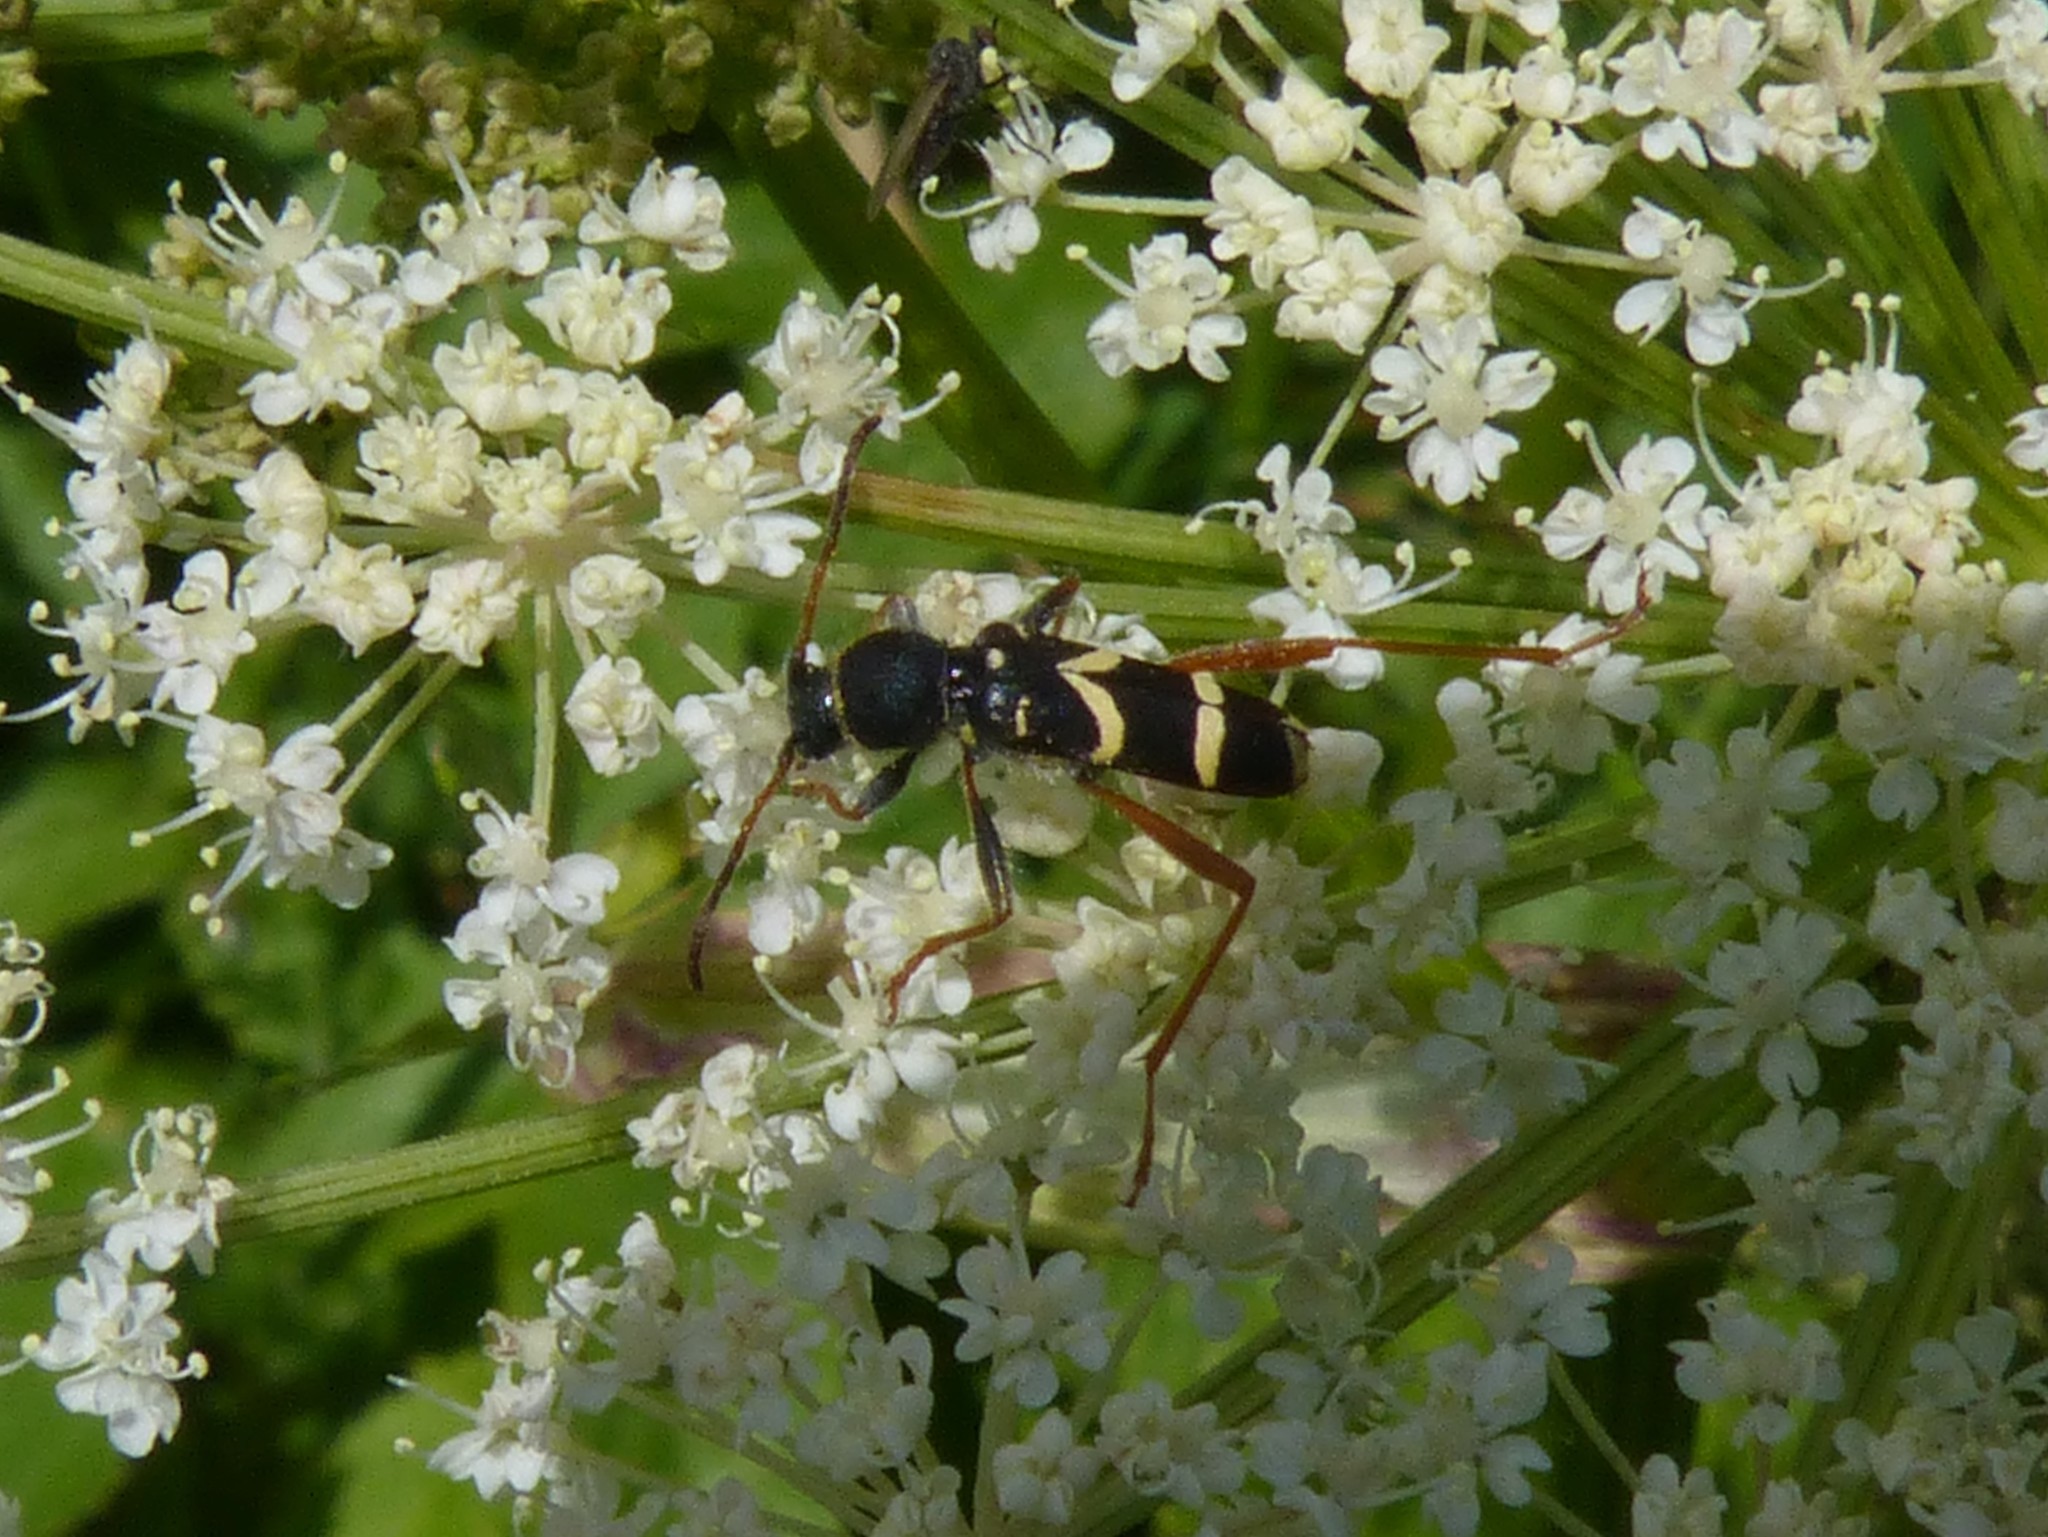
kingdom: Animalia
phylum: Arthropoda
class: Insecta
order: Coleoptera
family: Cerambycidae
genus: Clytus
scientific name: Clytus arietis
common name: Wasp beetle
